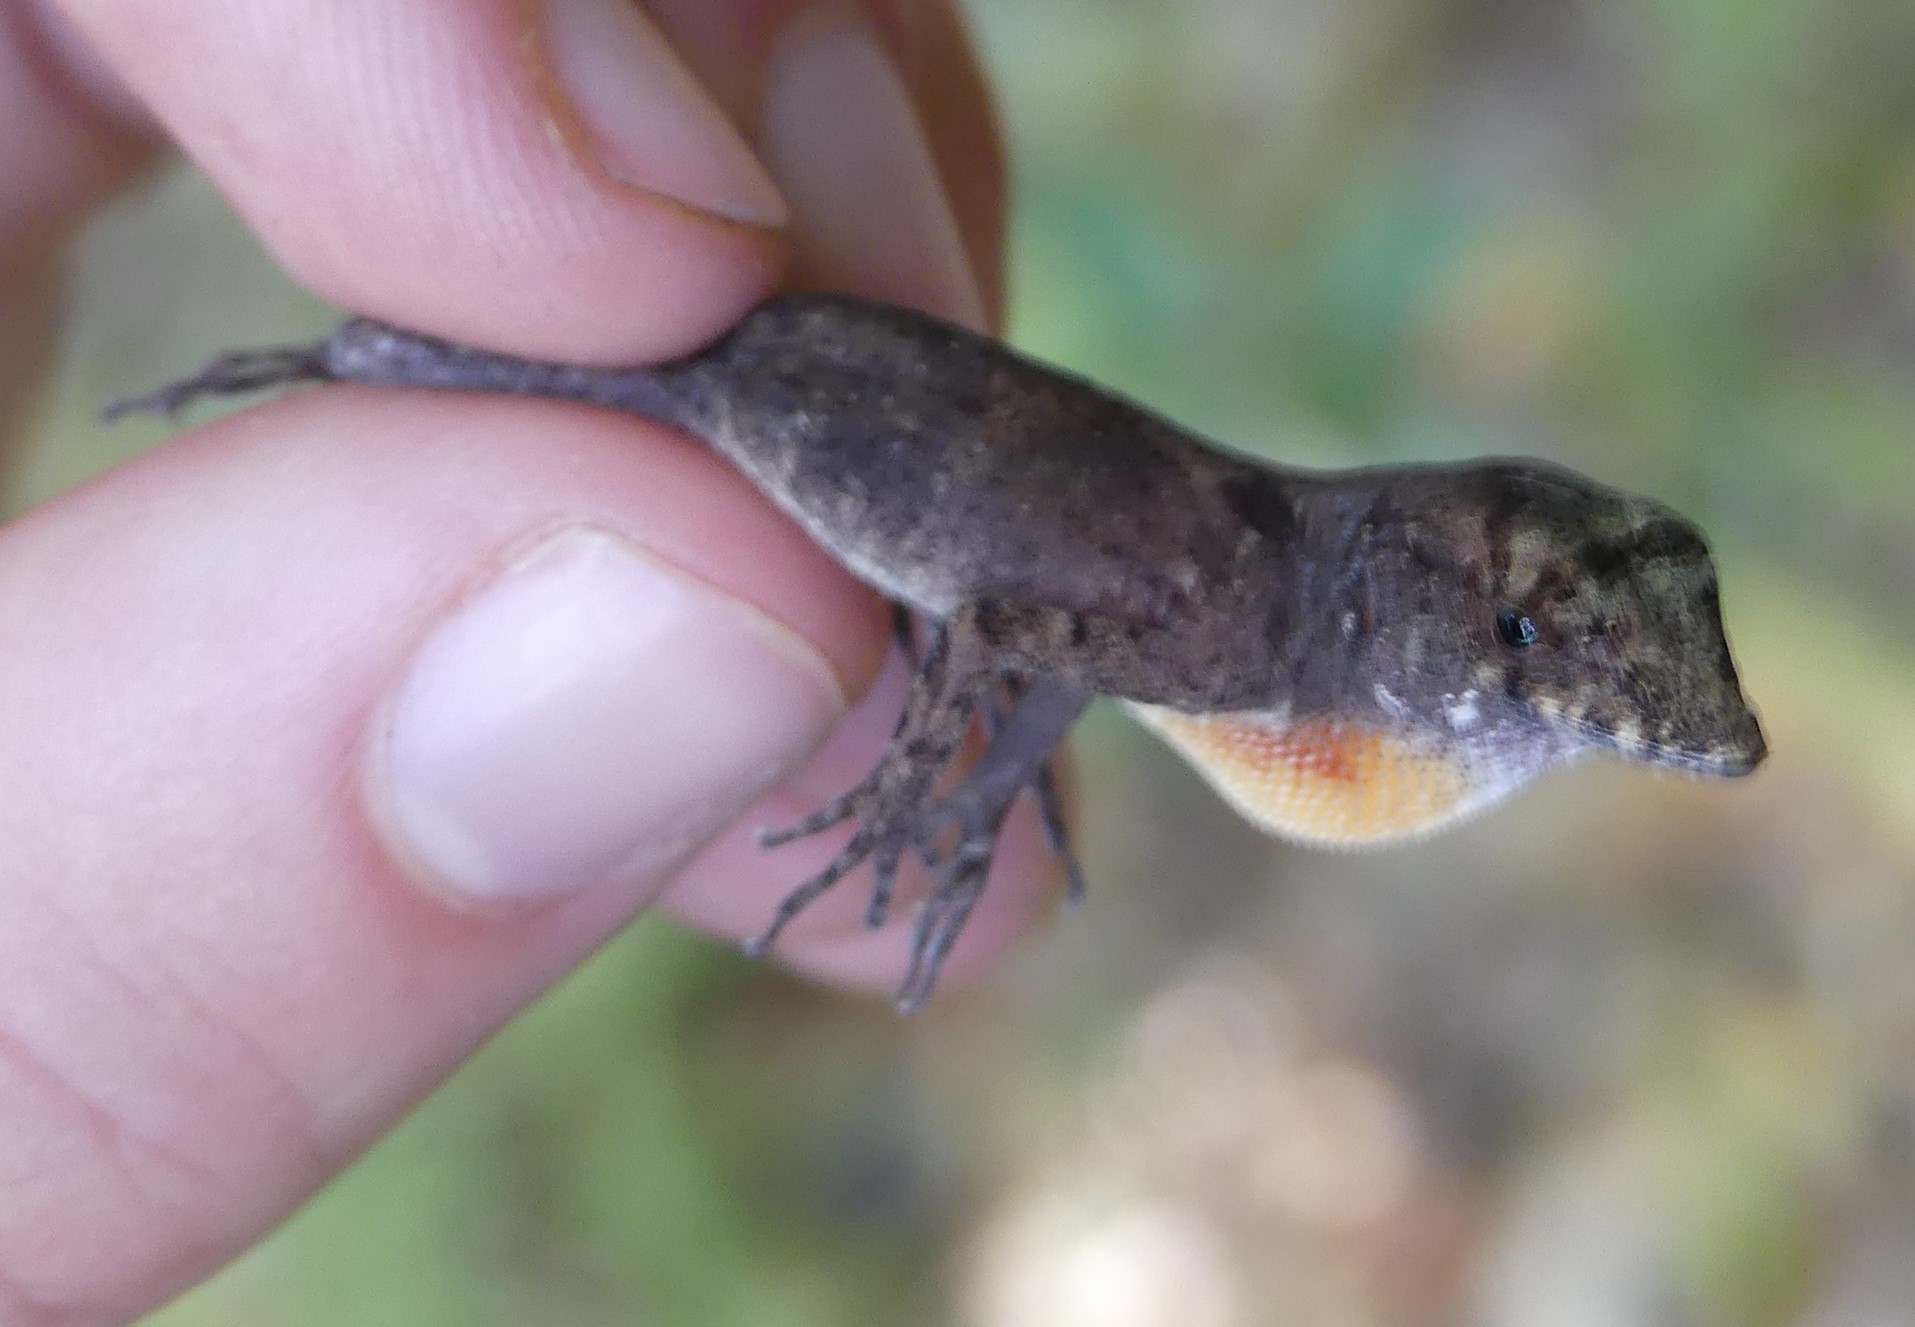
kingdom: Animalia
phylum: Chordata
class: Squamata
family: Dactyloidae
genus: Anolis
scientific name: Anolis allogus
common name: Bueycito anole
